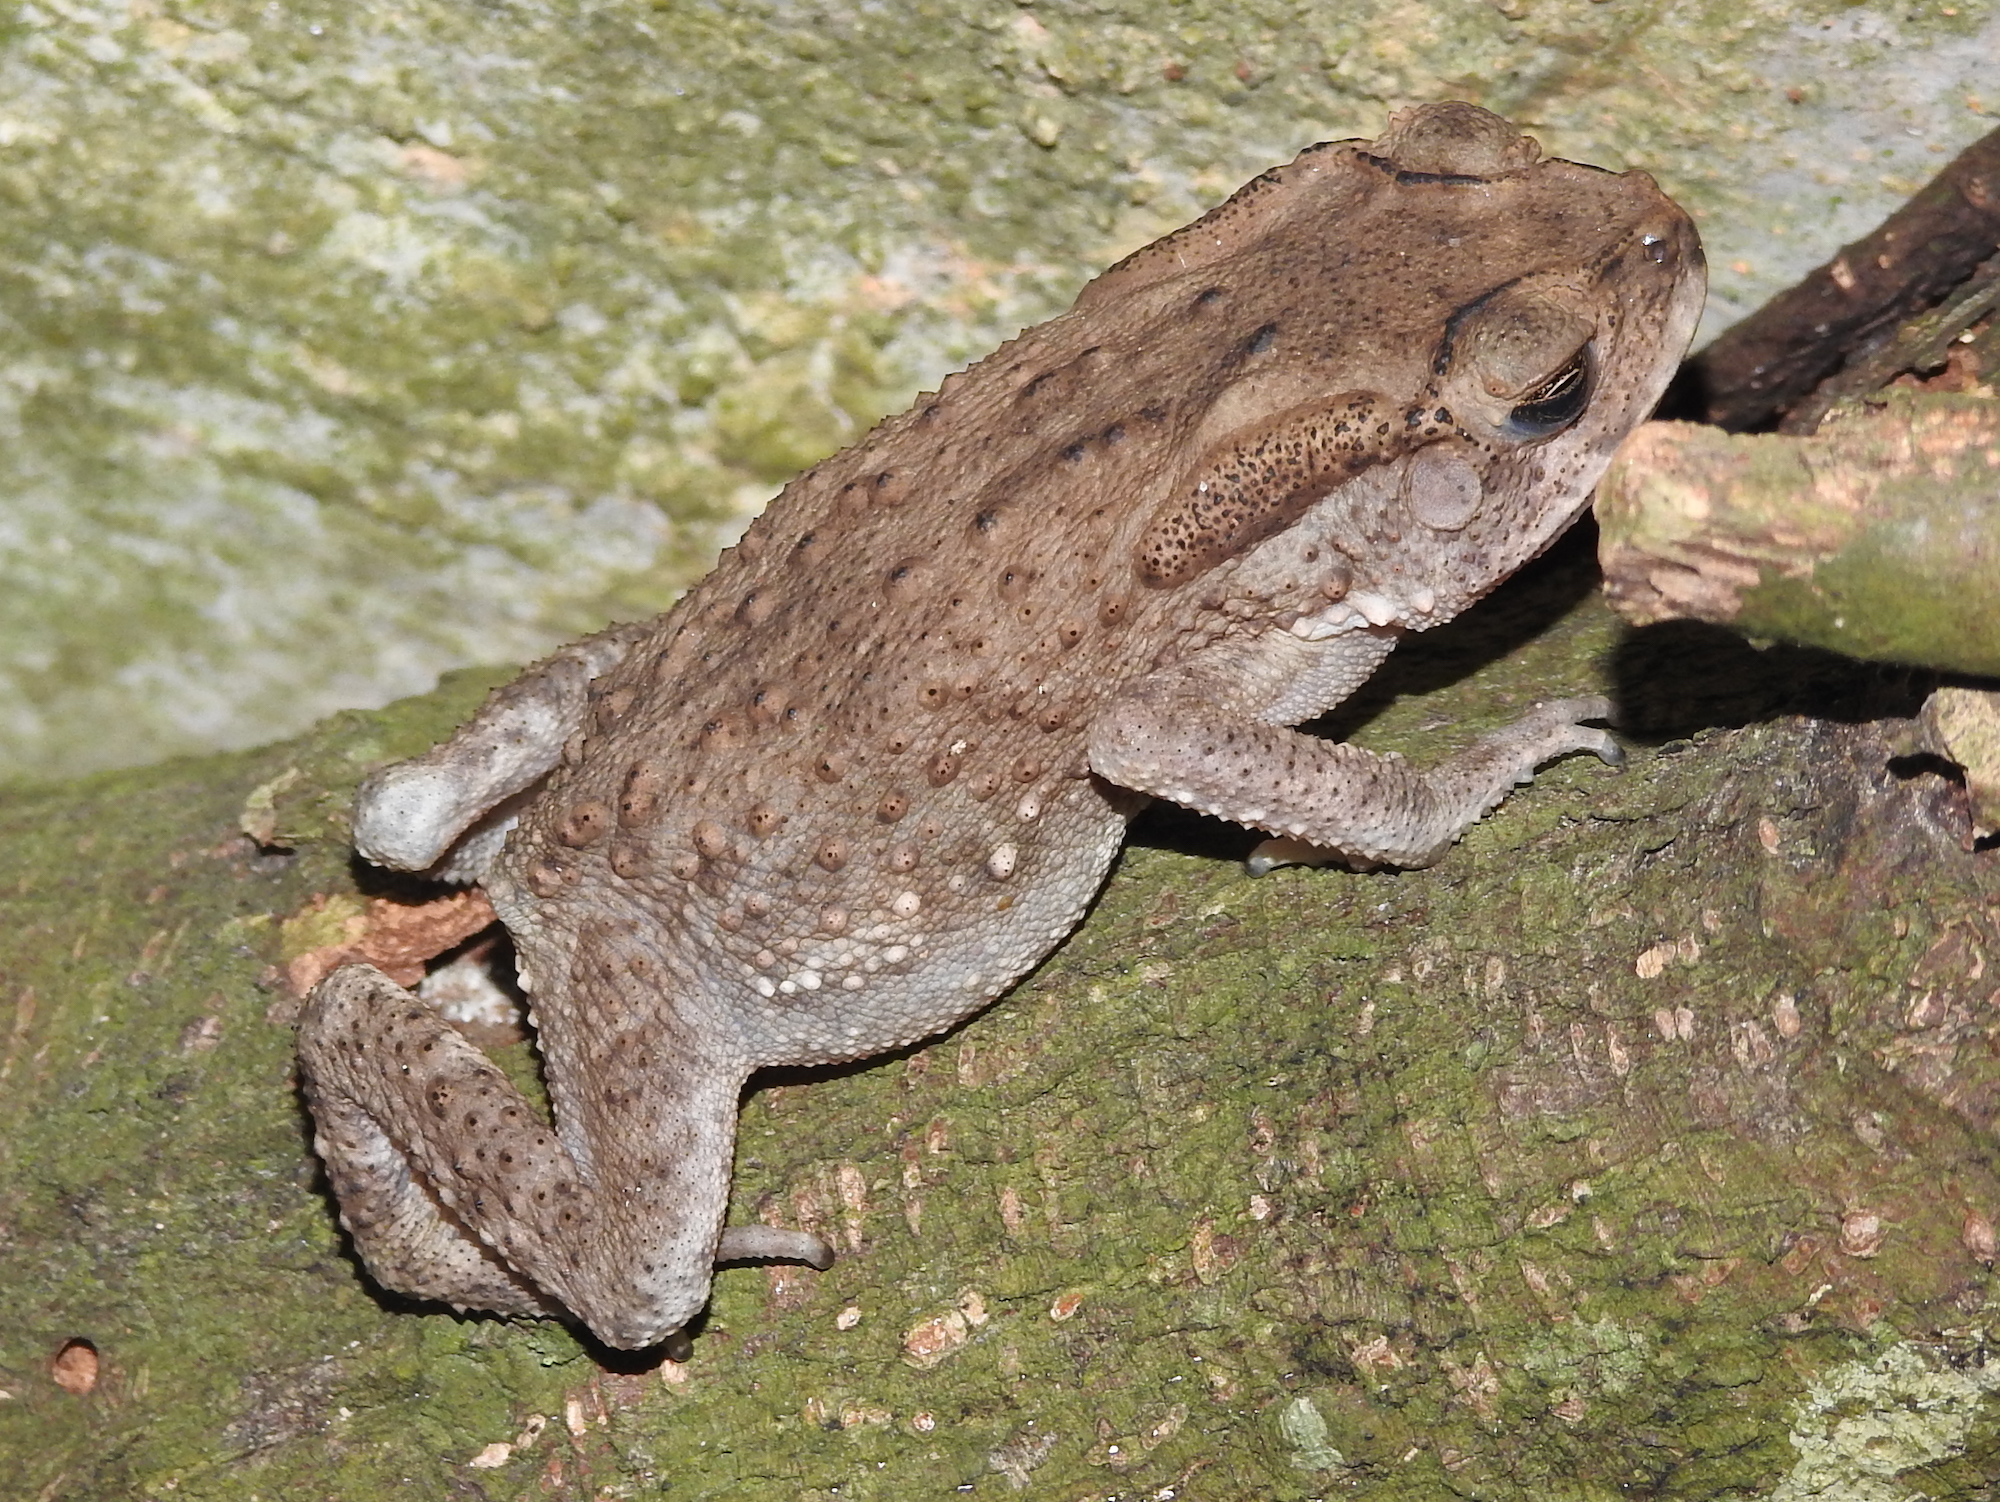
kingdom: Animalia
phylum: Chordata
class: Amphibia
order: Anura
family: Bufonidae
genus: Duttaphrynus
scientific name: Duttaphrynus melanostictus
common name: Common sunda toad
